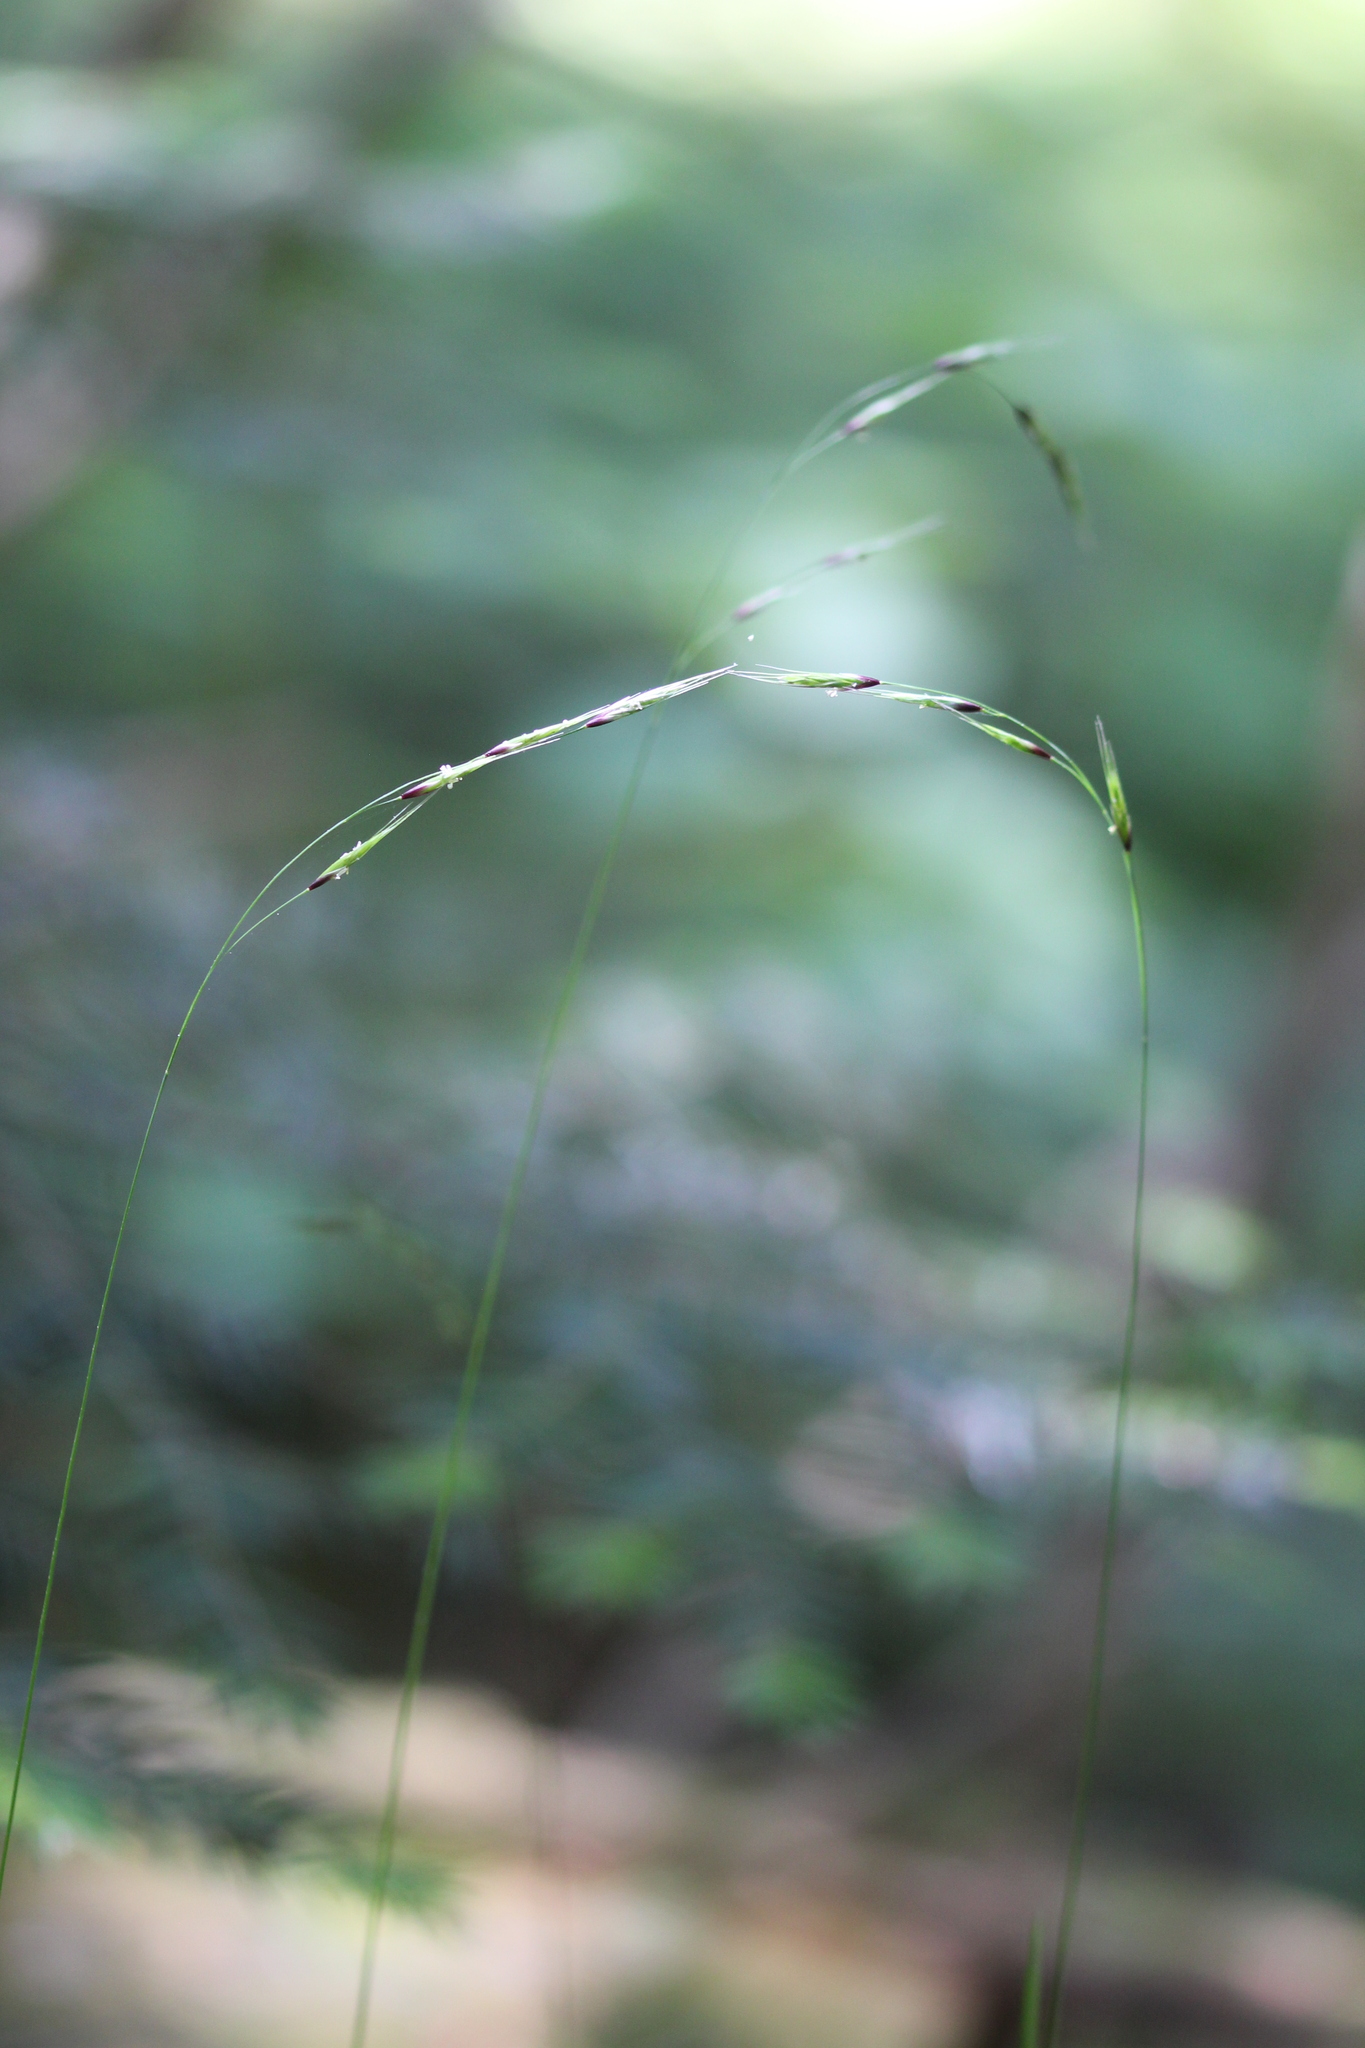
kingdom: Plantae
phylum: Tracheophyta
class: Liliopsida
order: Poales
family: Poaceae
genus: Schizachne
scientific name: Schizachne purpurascens
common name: False melic
